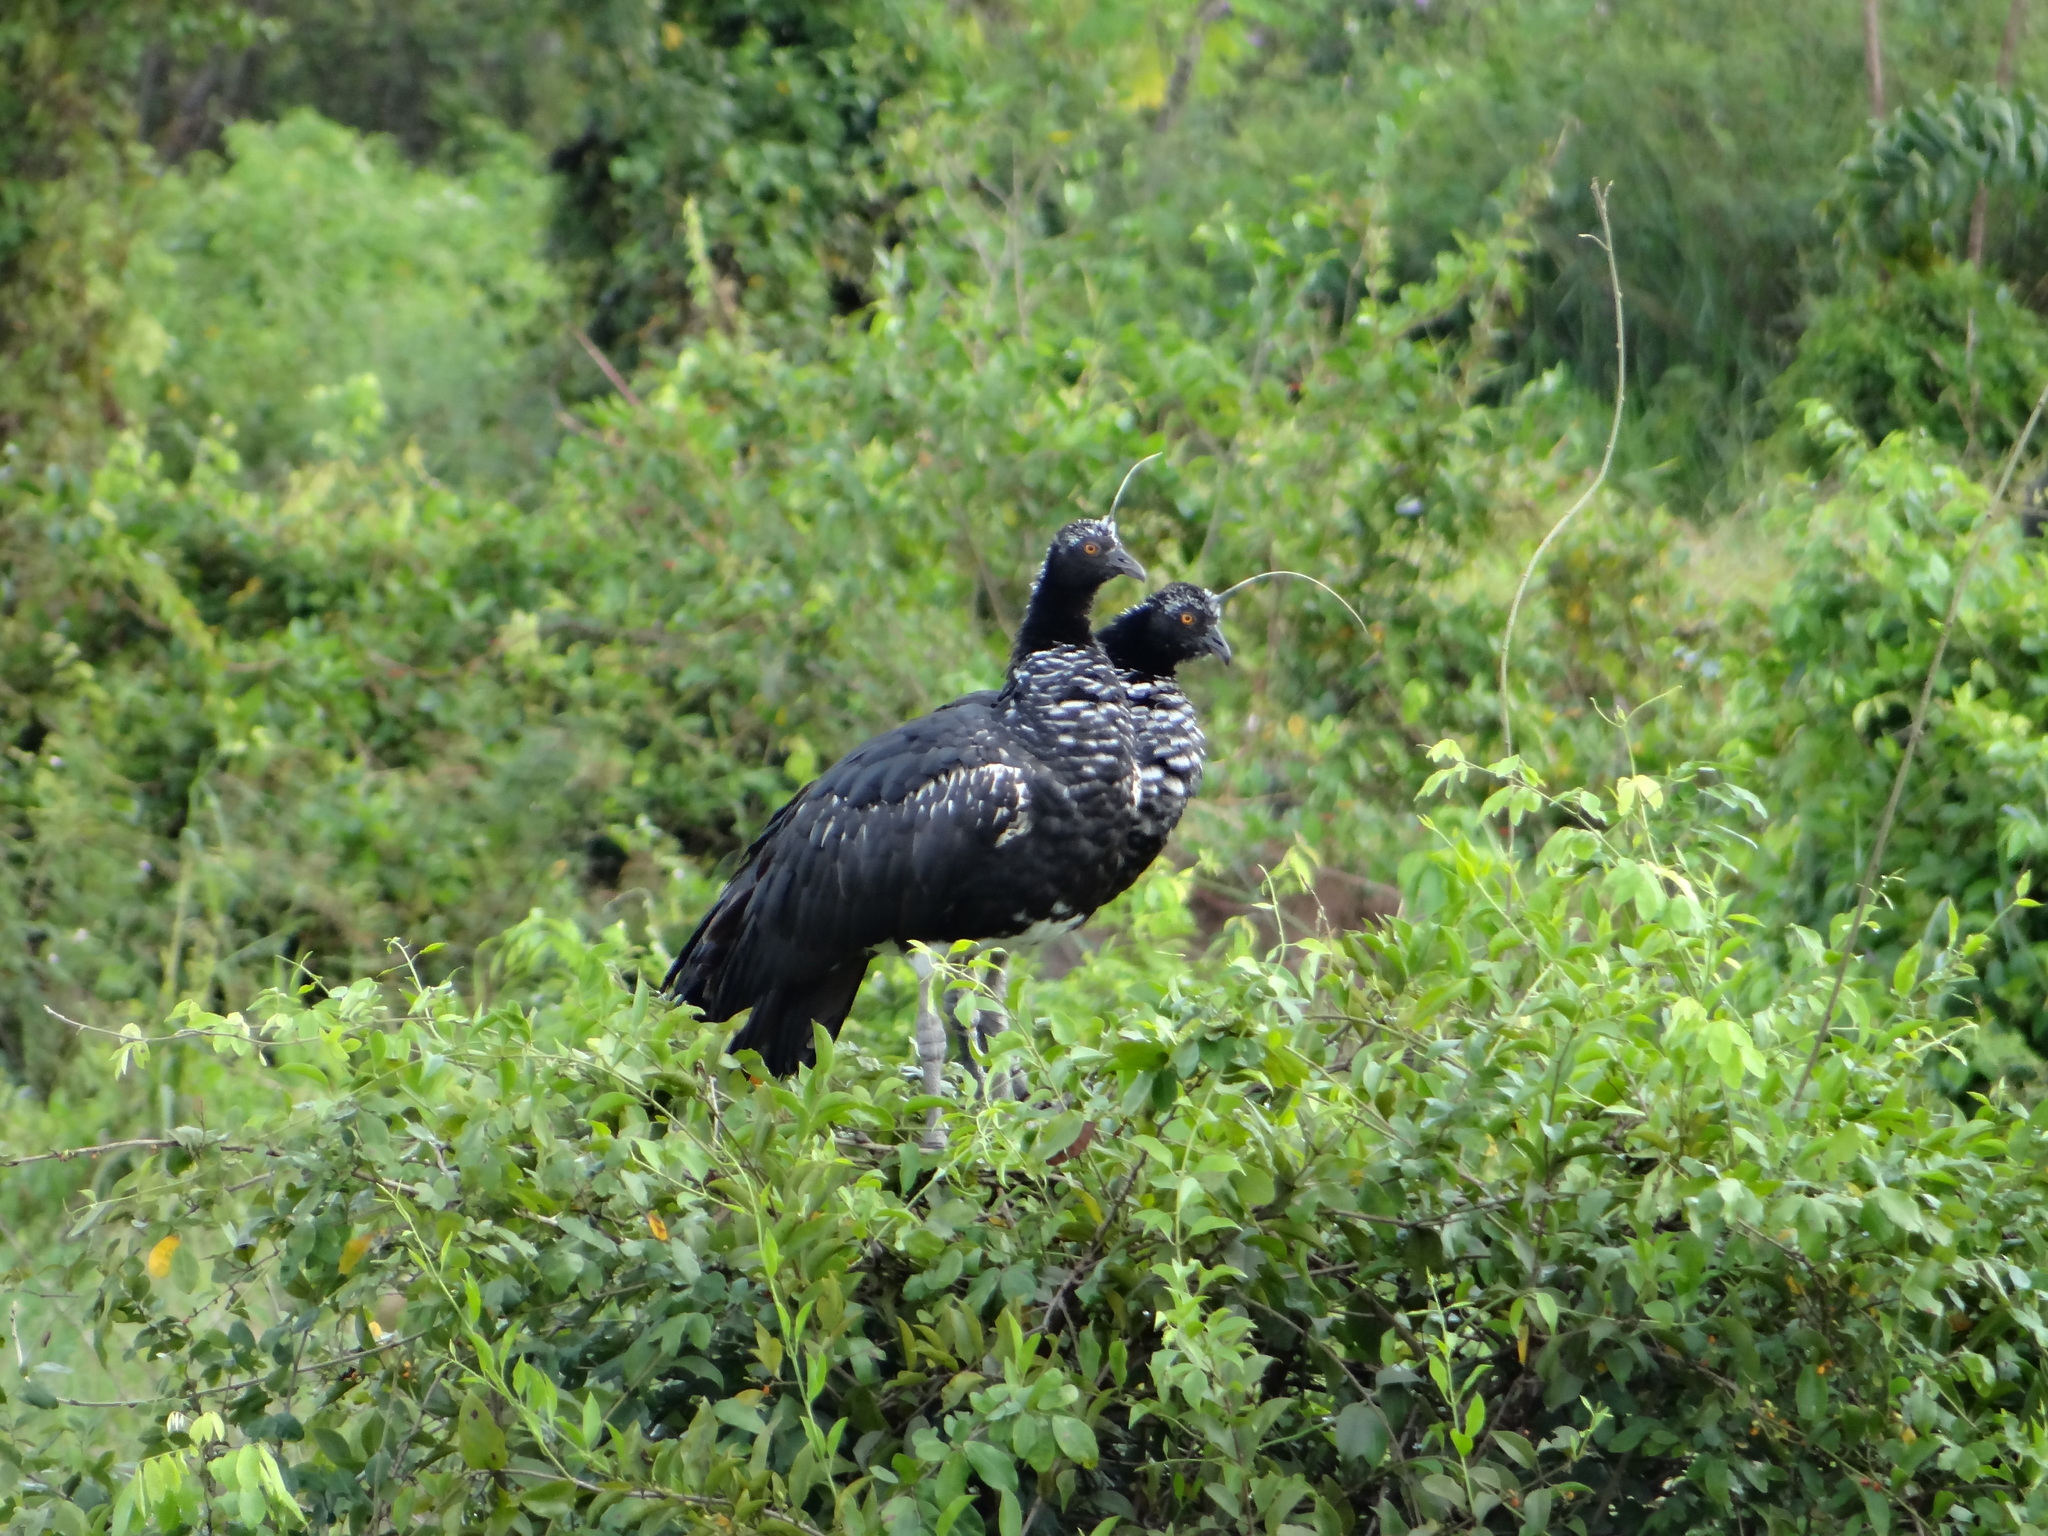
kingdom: Animalia
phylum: Chordata
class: Aves
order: Anseriformes
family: Anhimidae
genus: Anhima
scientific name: Anhima cornuta
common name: Horned screamer
